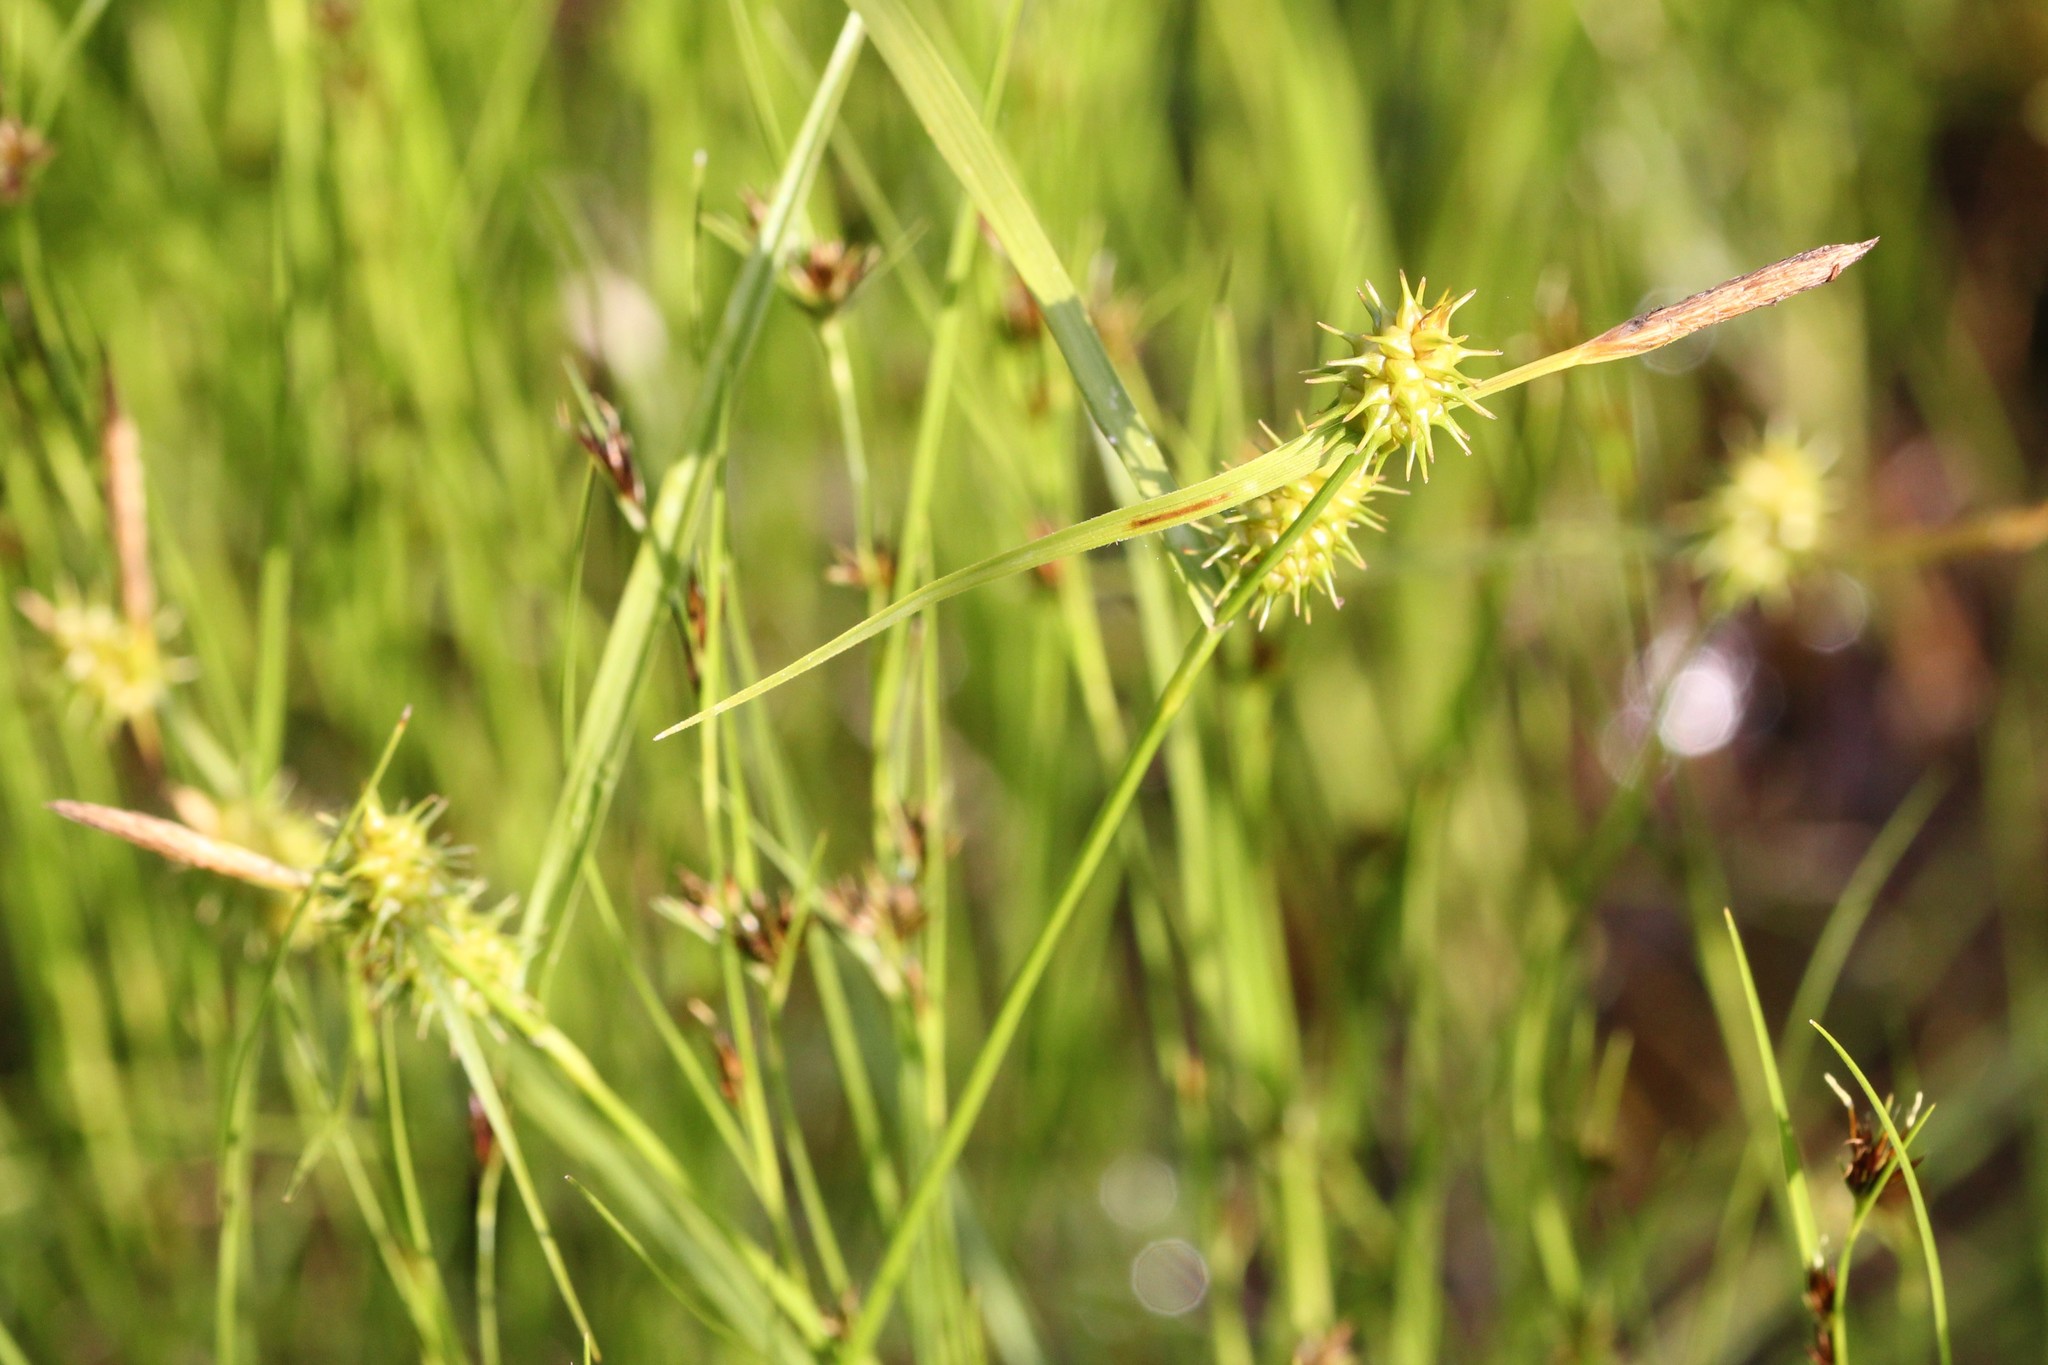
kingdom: Plantae
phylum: Tracheophyta
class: Liliopsida
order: Poales
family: Cyperaceae
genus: Carex
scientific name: Carex cryptolepis
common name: Northeastern sedge
